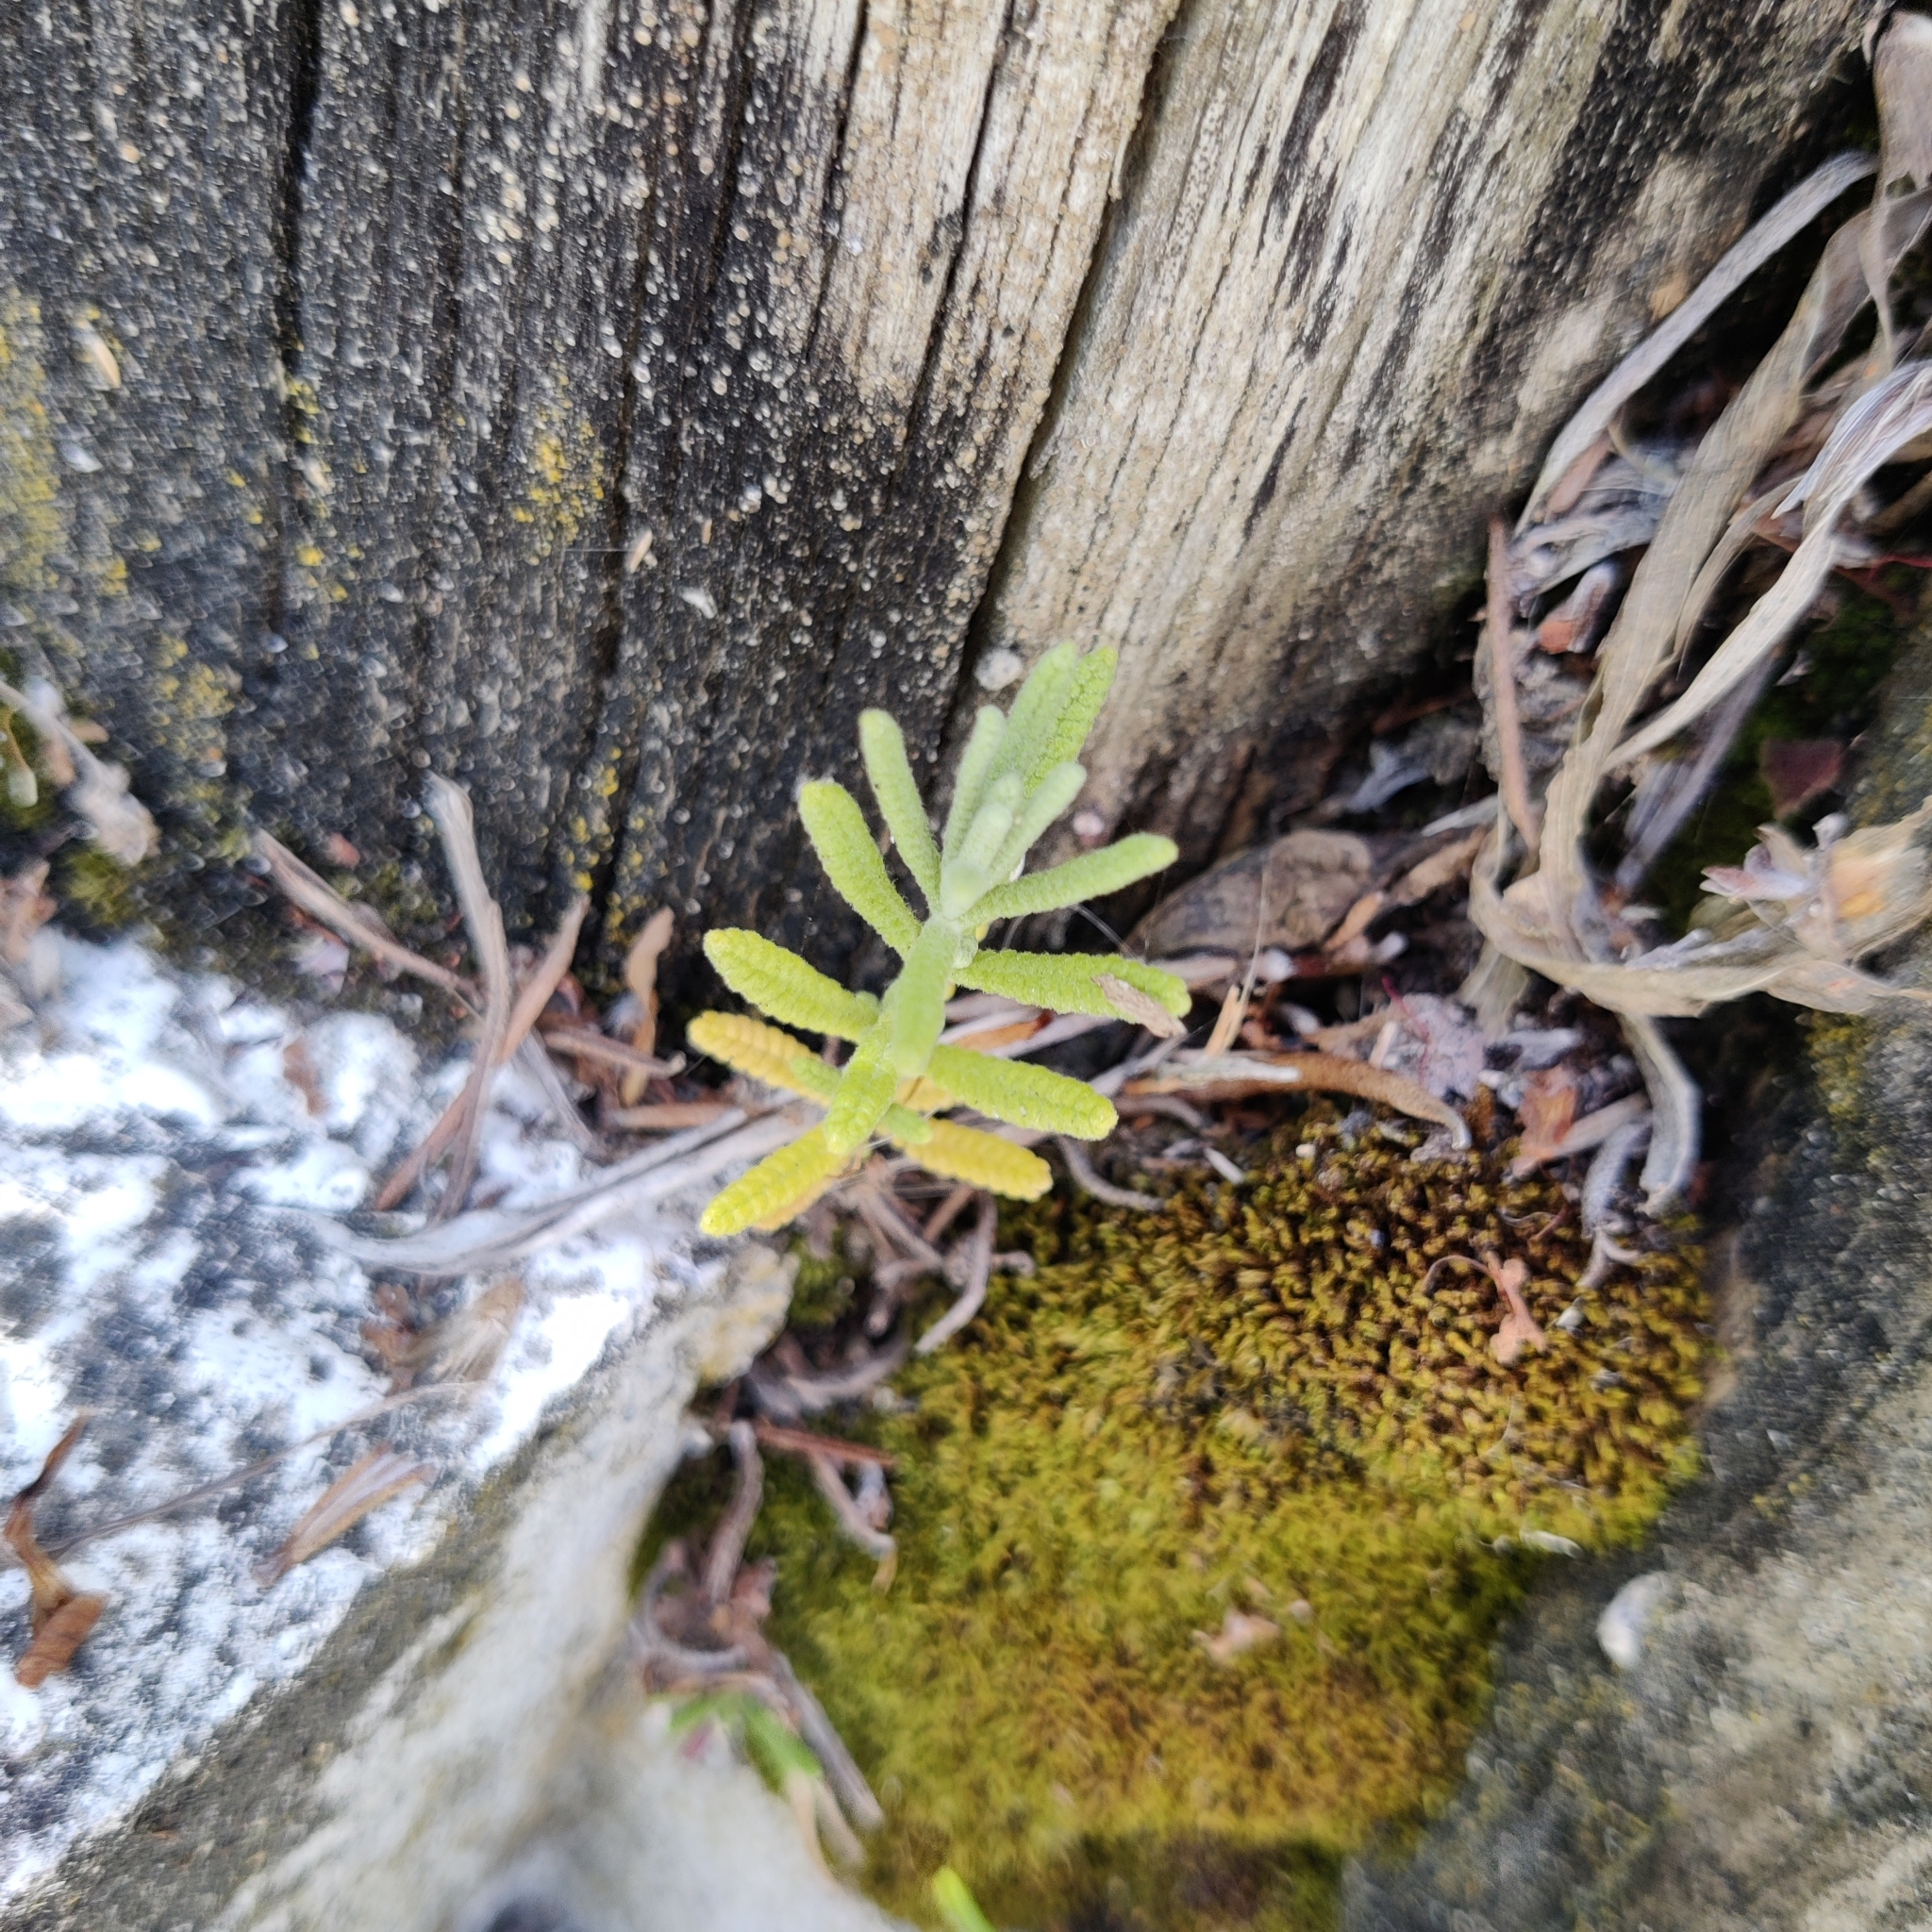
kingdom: Plantae
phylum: Tracheophyta
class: Magnoliopsida
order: Lamiales
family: Lamiaceae
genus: Lavandula
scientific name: Lavandula dentata
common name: French lavender
